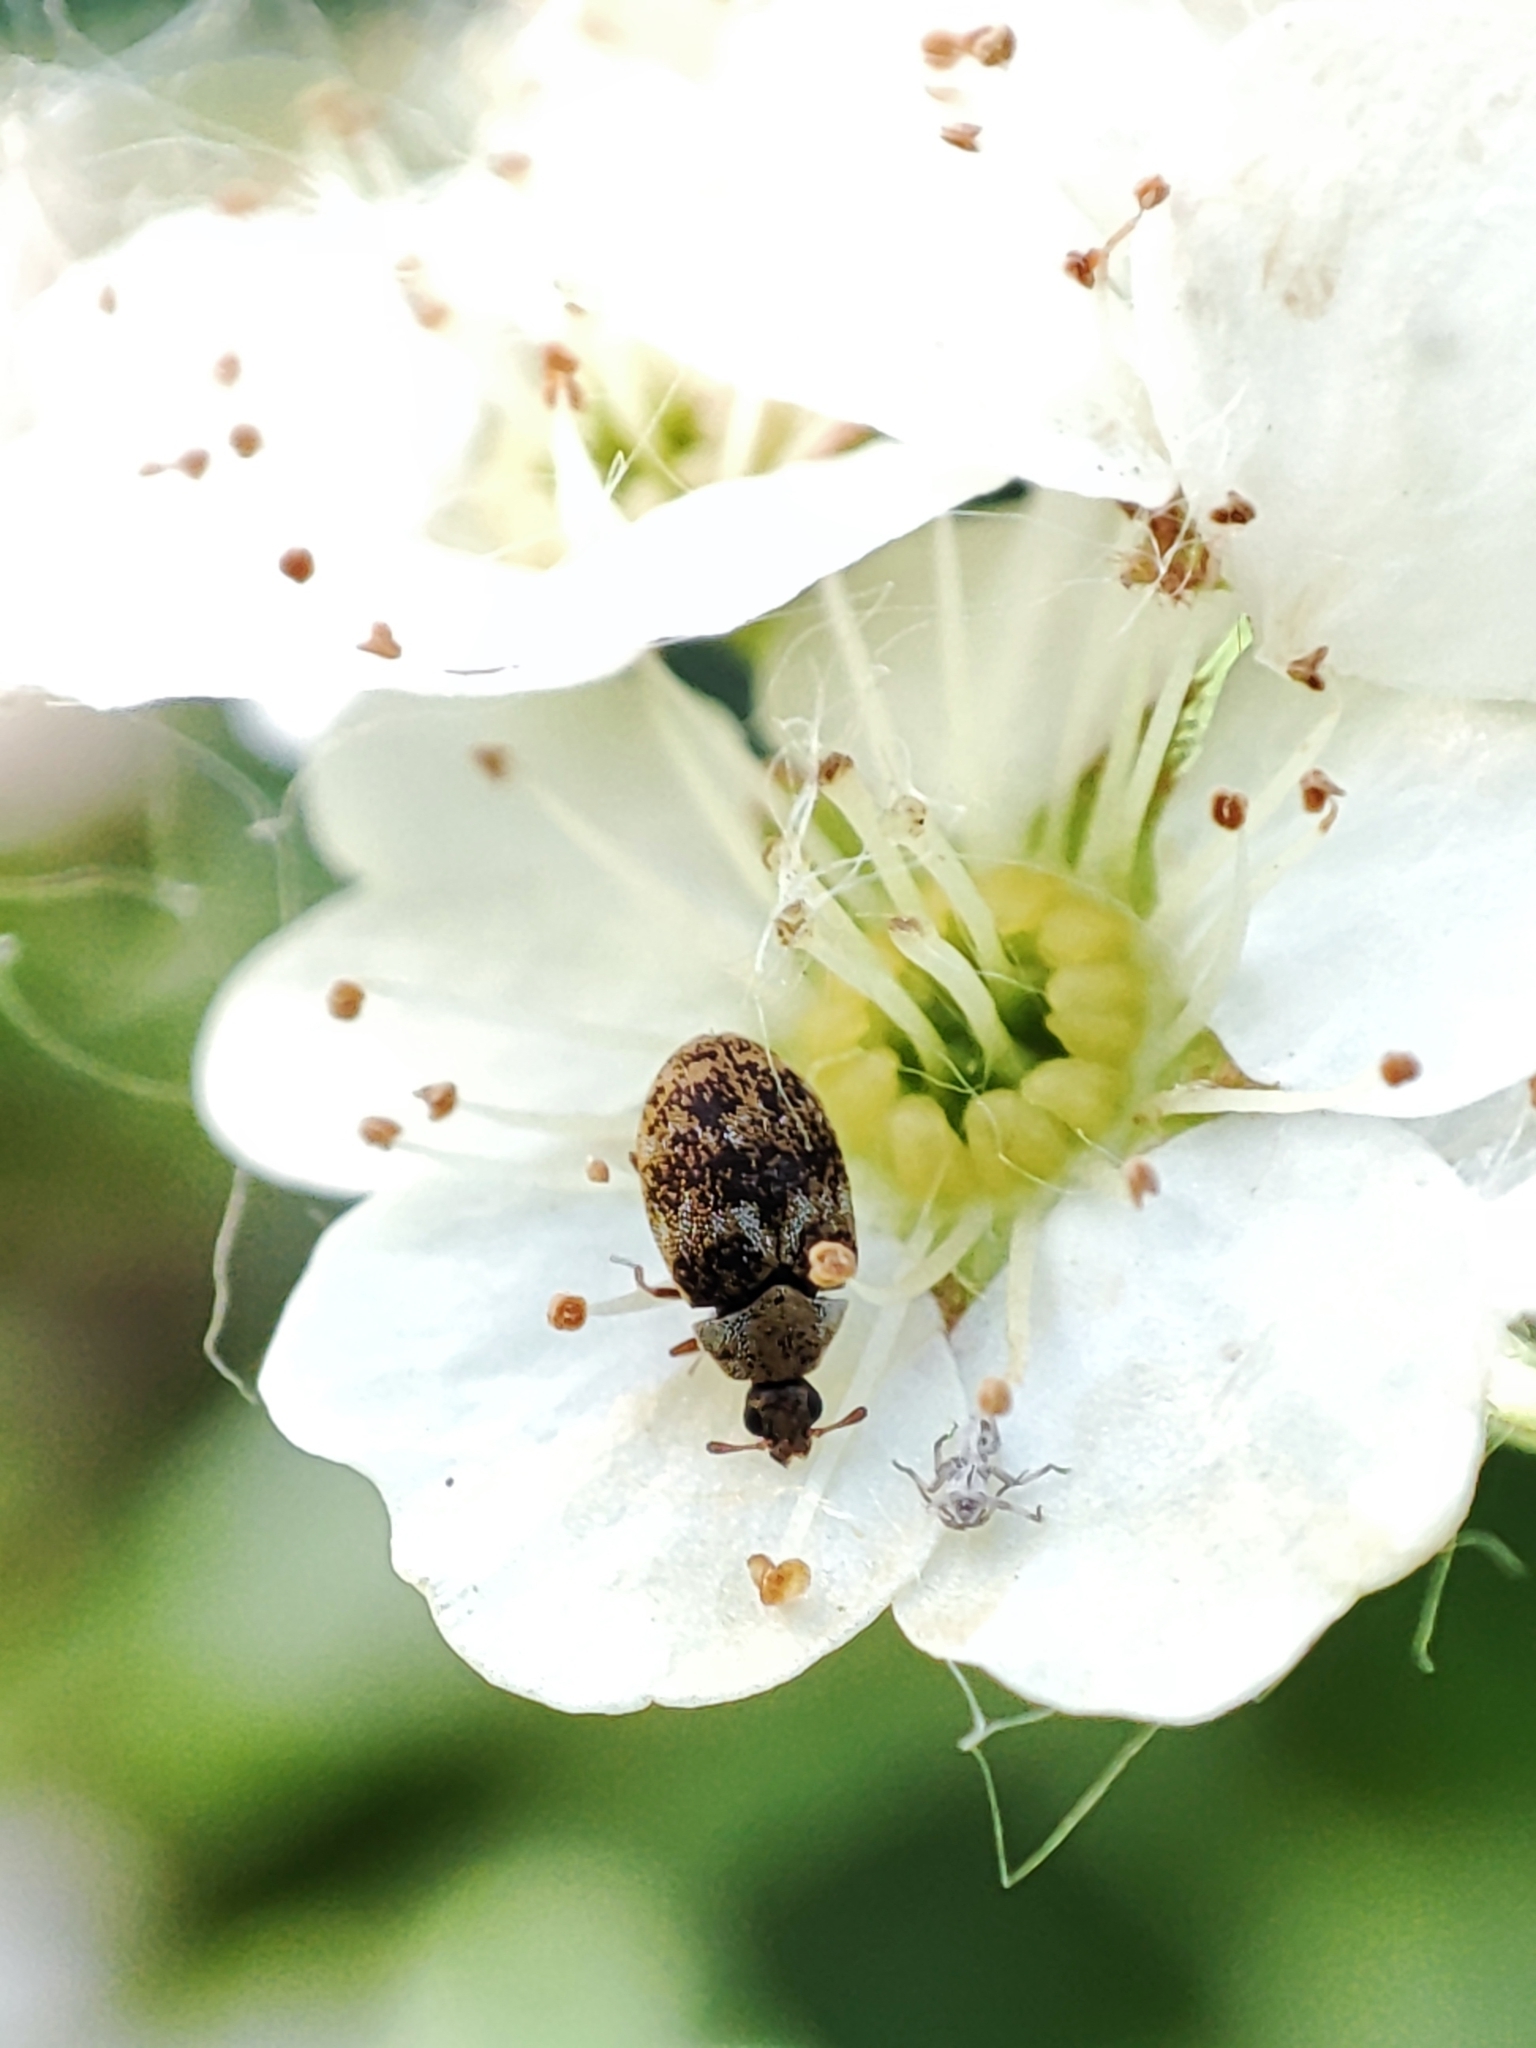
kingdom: Animalia
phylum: Arthropoda
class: Insecta
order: Coleoptera
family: Dermestidae
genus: Anthrenus
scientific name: Anthrenus fuscus
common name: Mill carpet beetle
